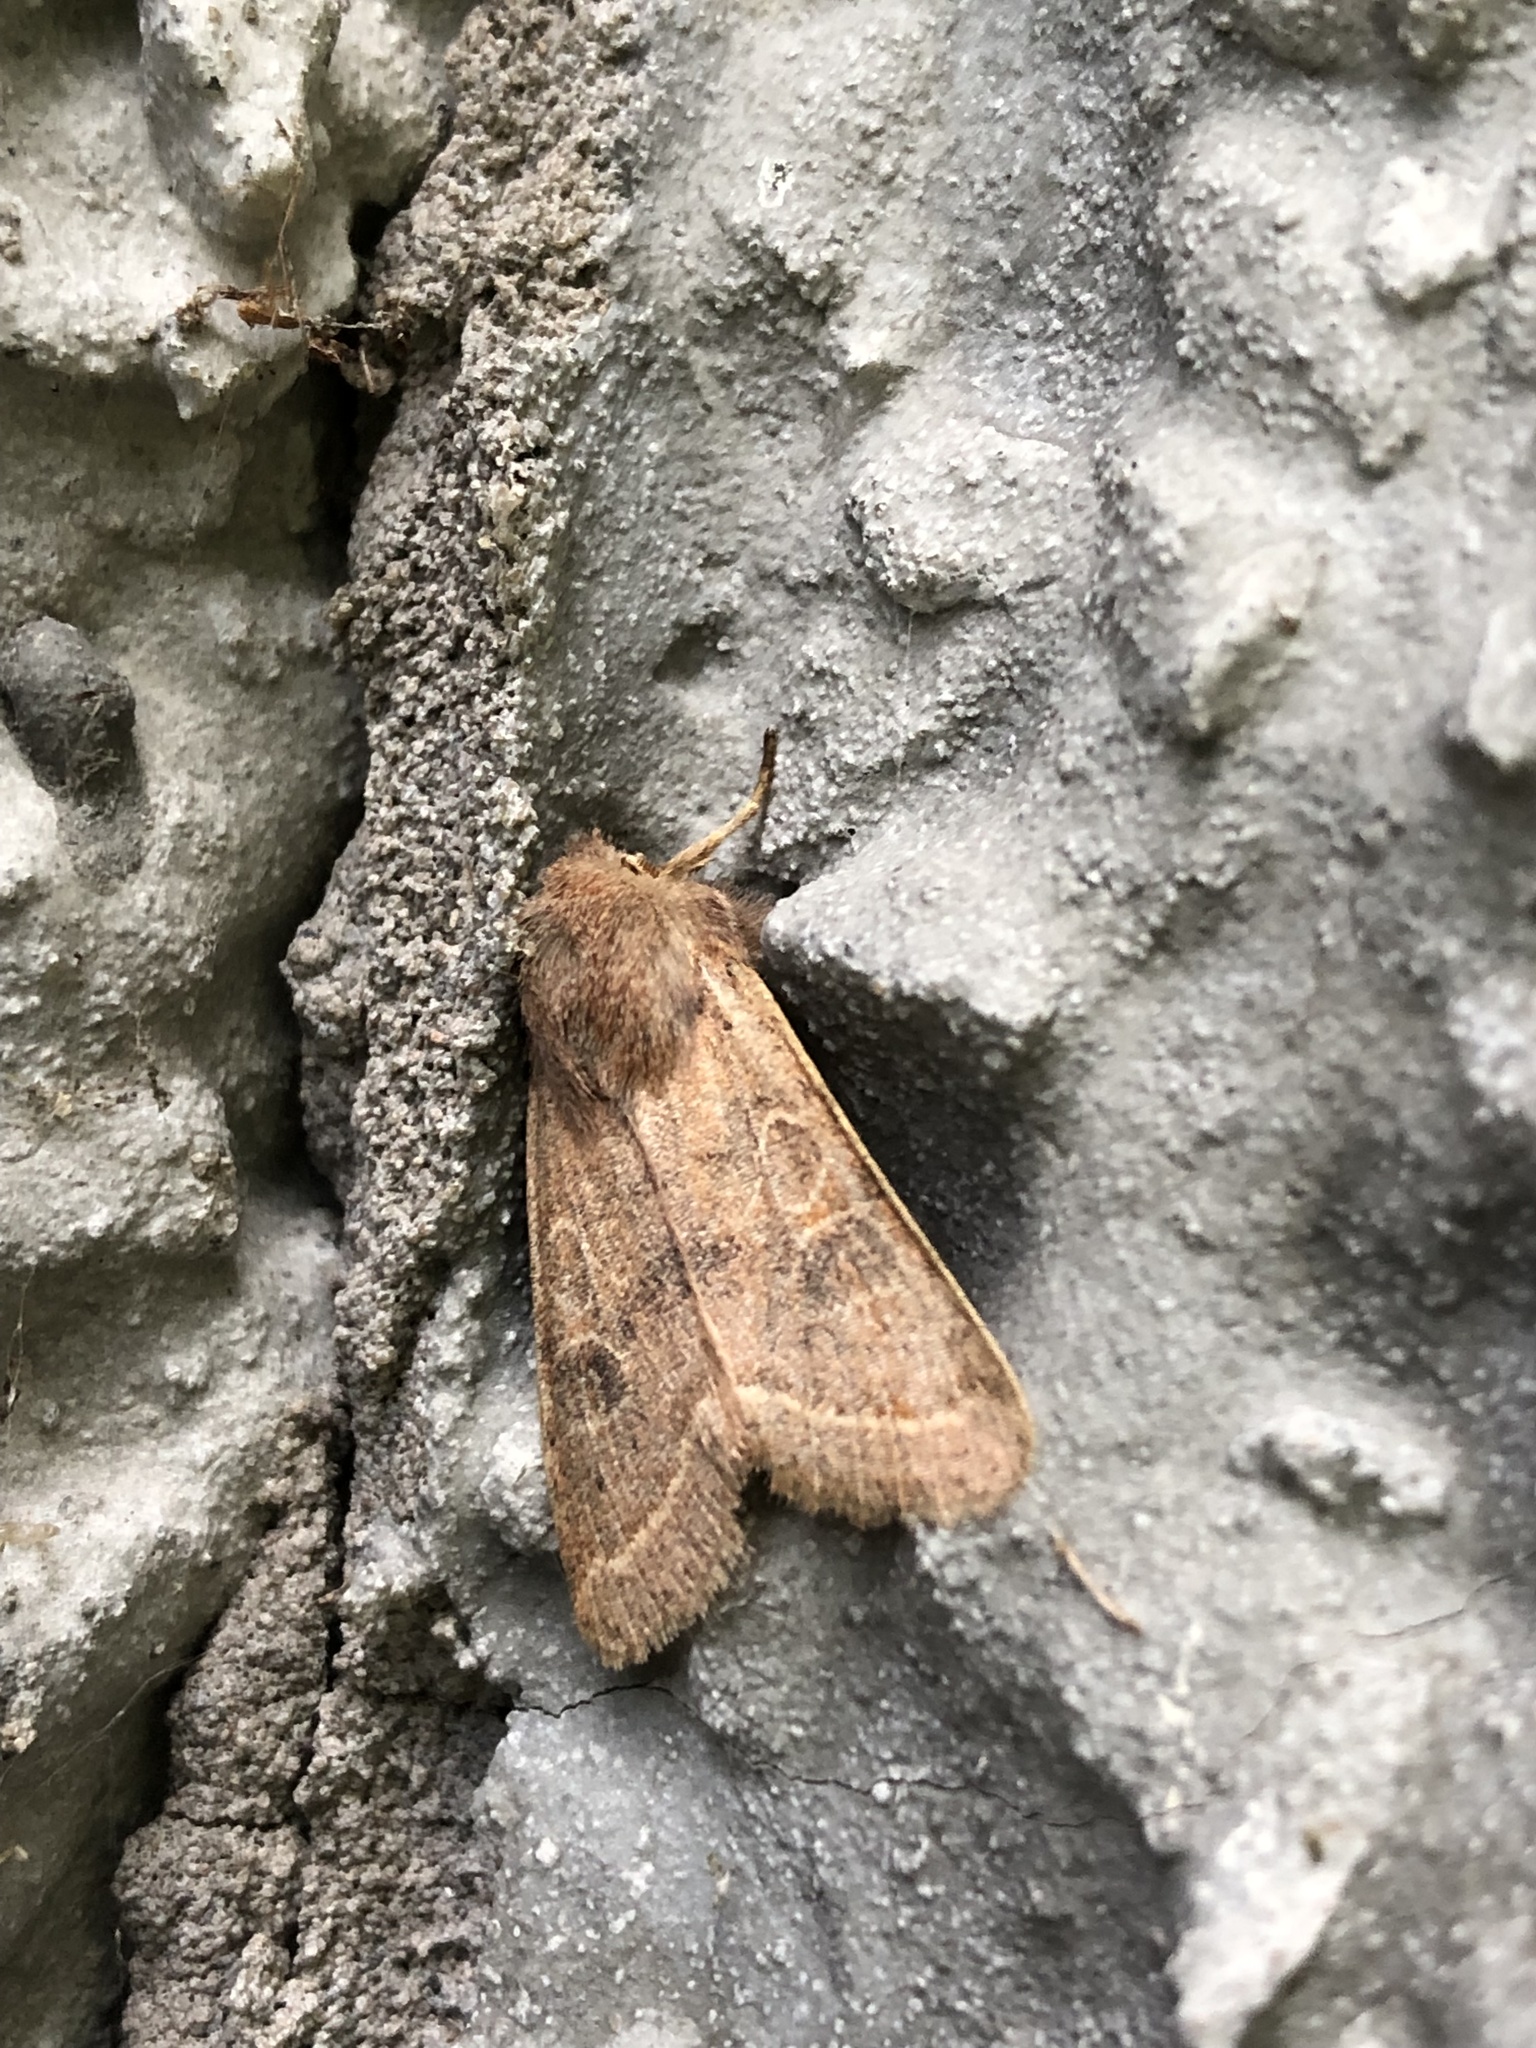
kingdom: Animalia
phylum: Arthropoda
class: Insecta
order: Lepidoptera
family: Noctuidae
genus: Orthosia
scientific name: Orthosia cerasi
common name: Common quaker
